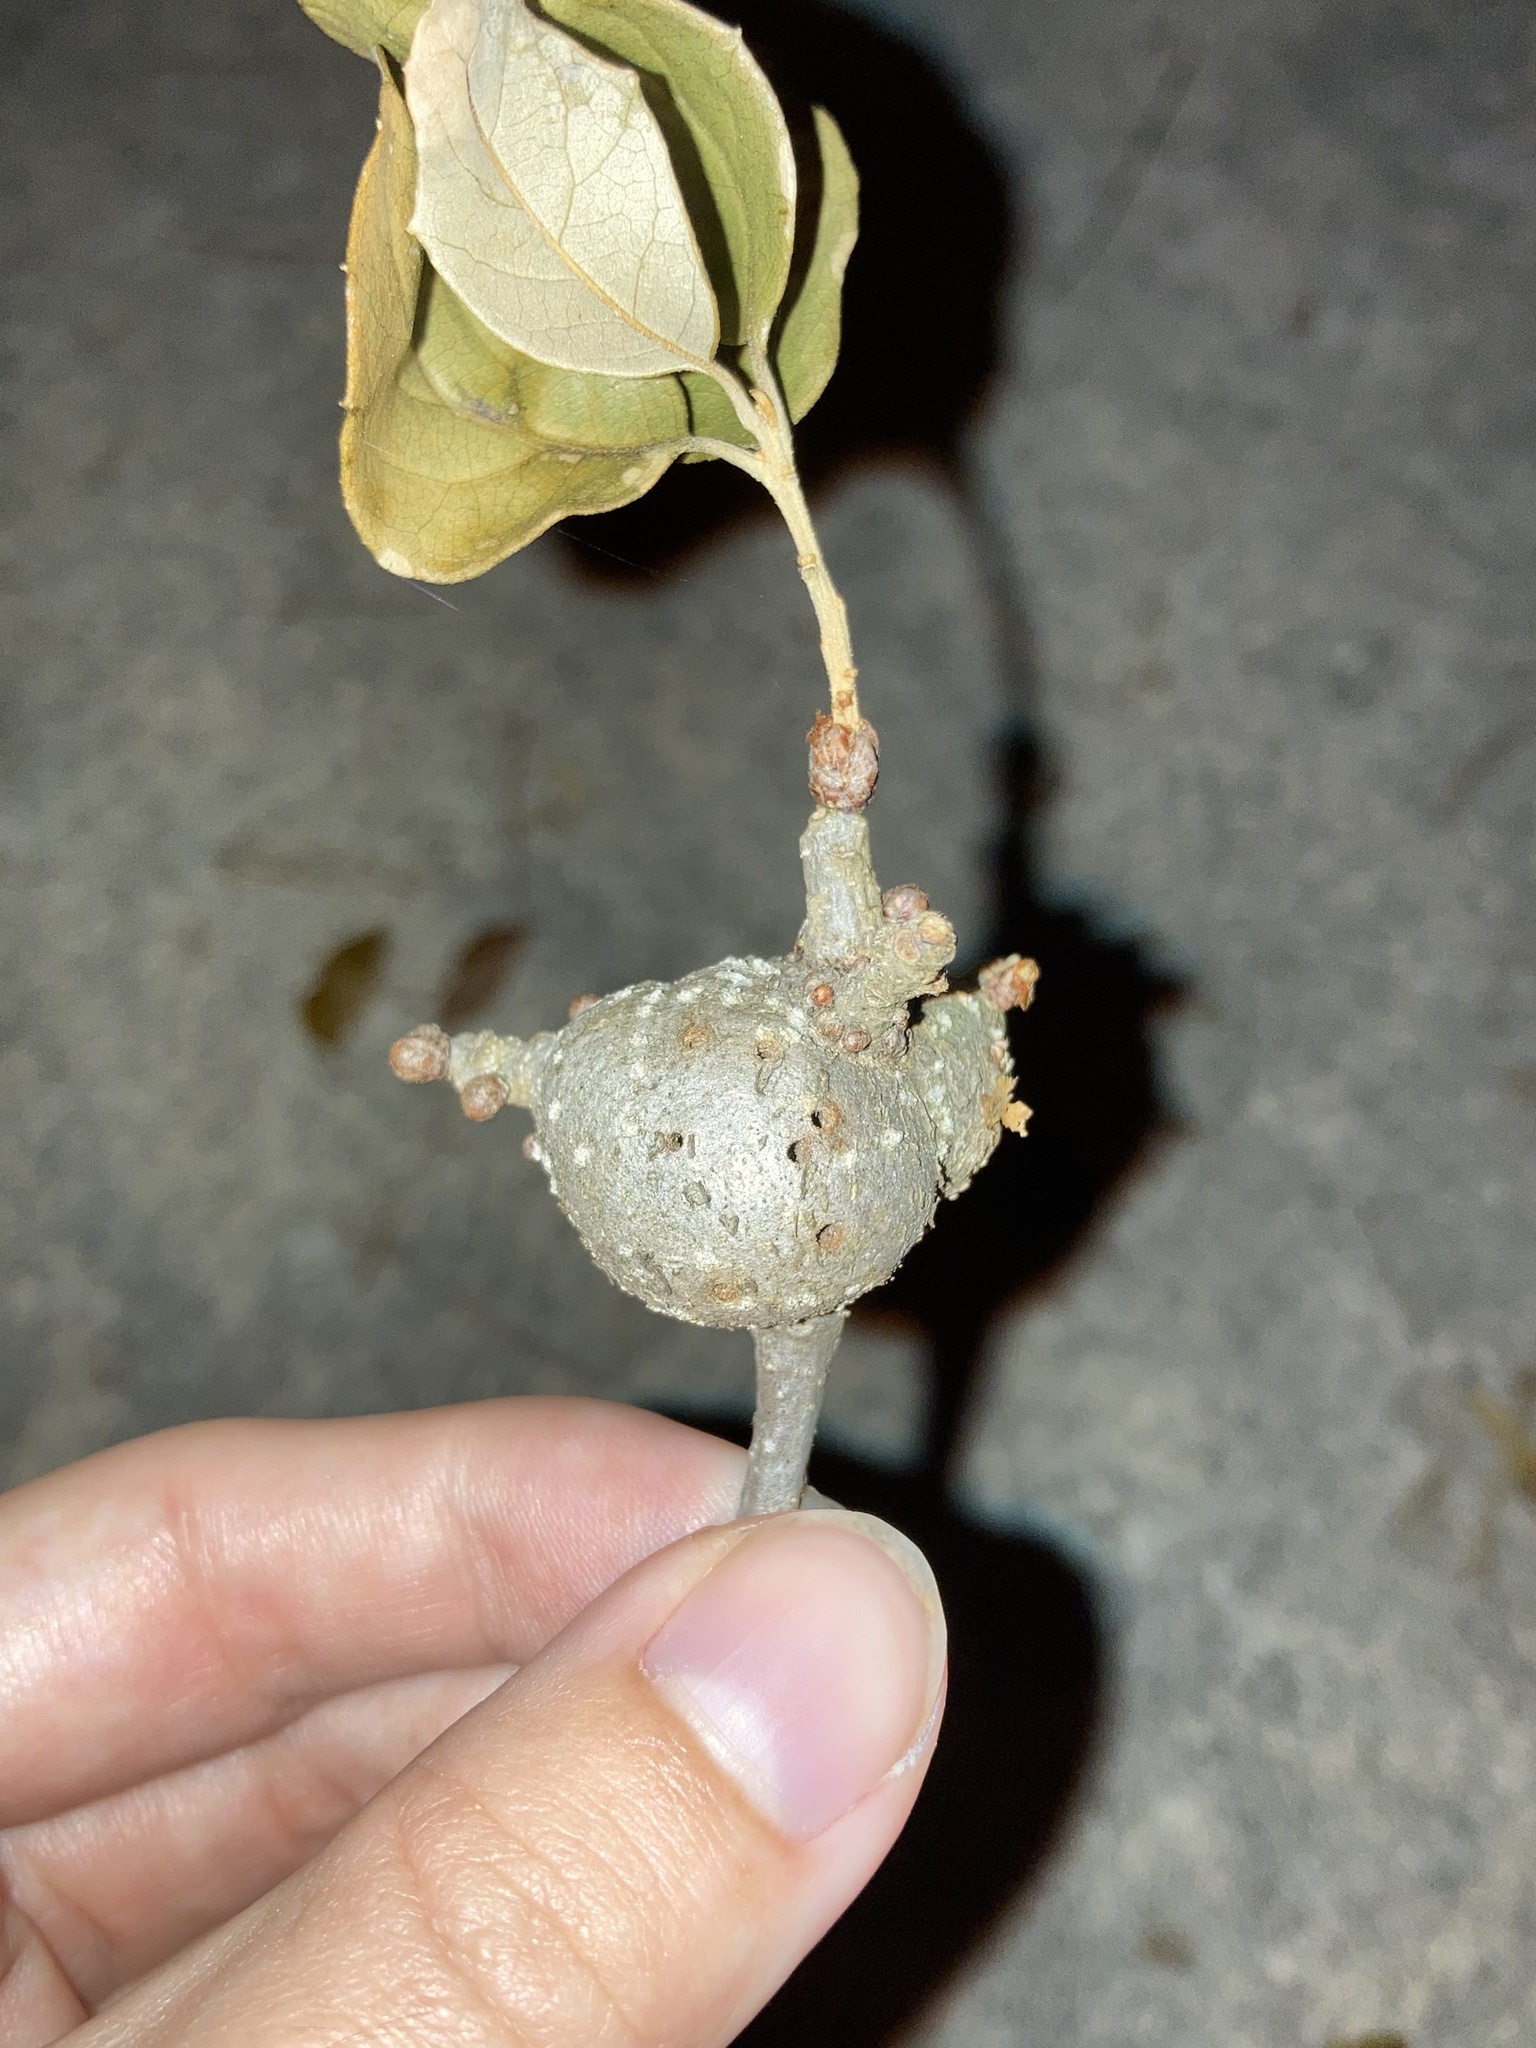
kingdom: Animalia
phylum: Arthropoda
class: Insecta
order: Hymenoptera
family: Cynipidae
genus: Callirhytis
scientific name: Callirhytis
